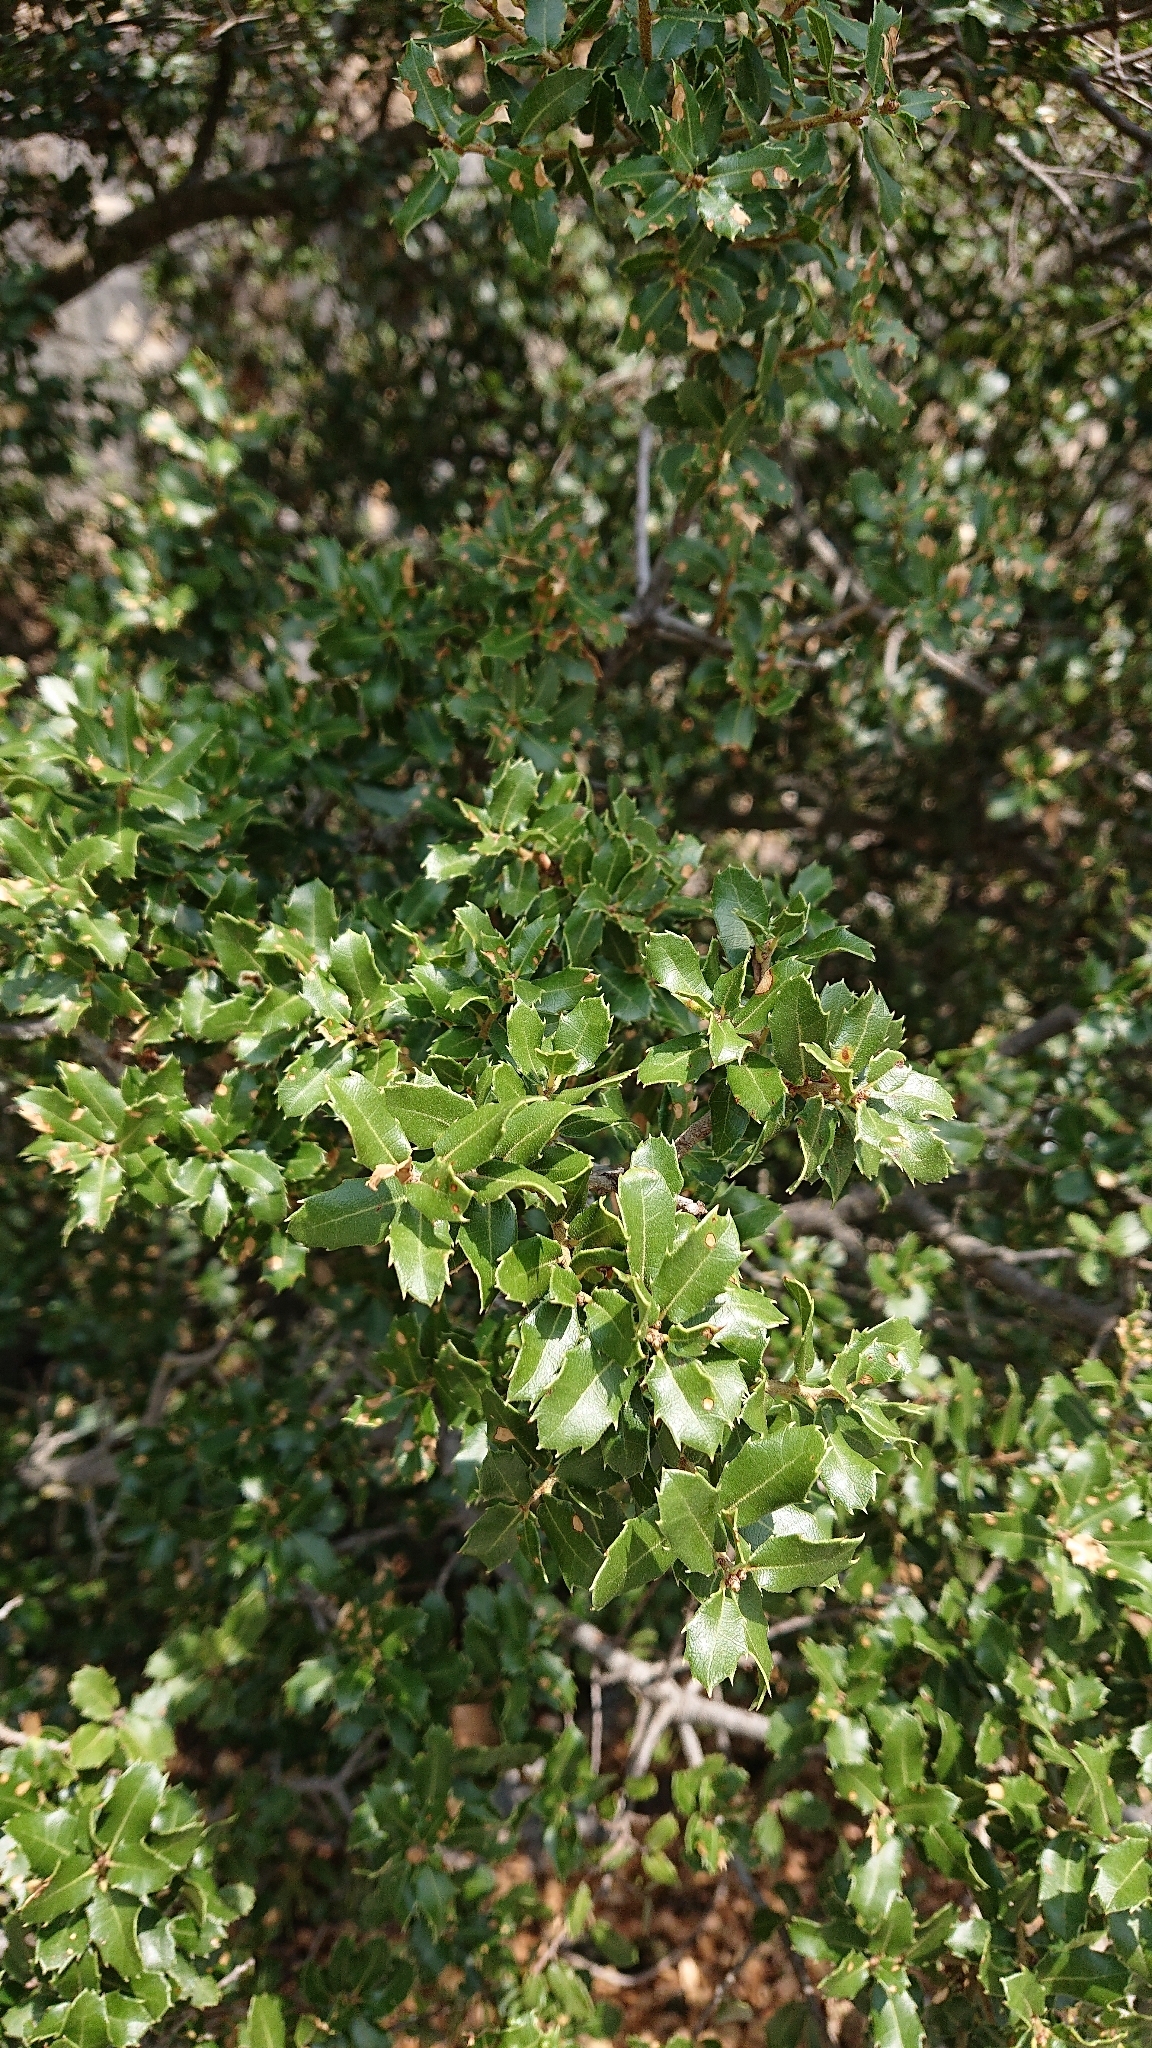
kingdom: Plantae
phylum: Tracheophyta
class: Magnoliopsida
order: Fagales
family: Fagaceae
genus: Quercus
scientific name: Quercus coccifera
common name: Kermes oak
